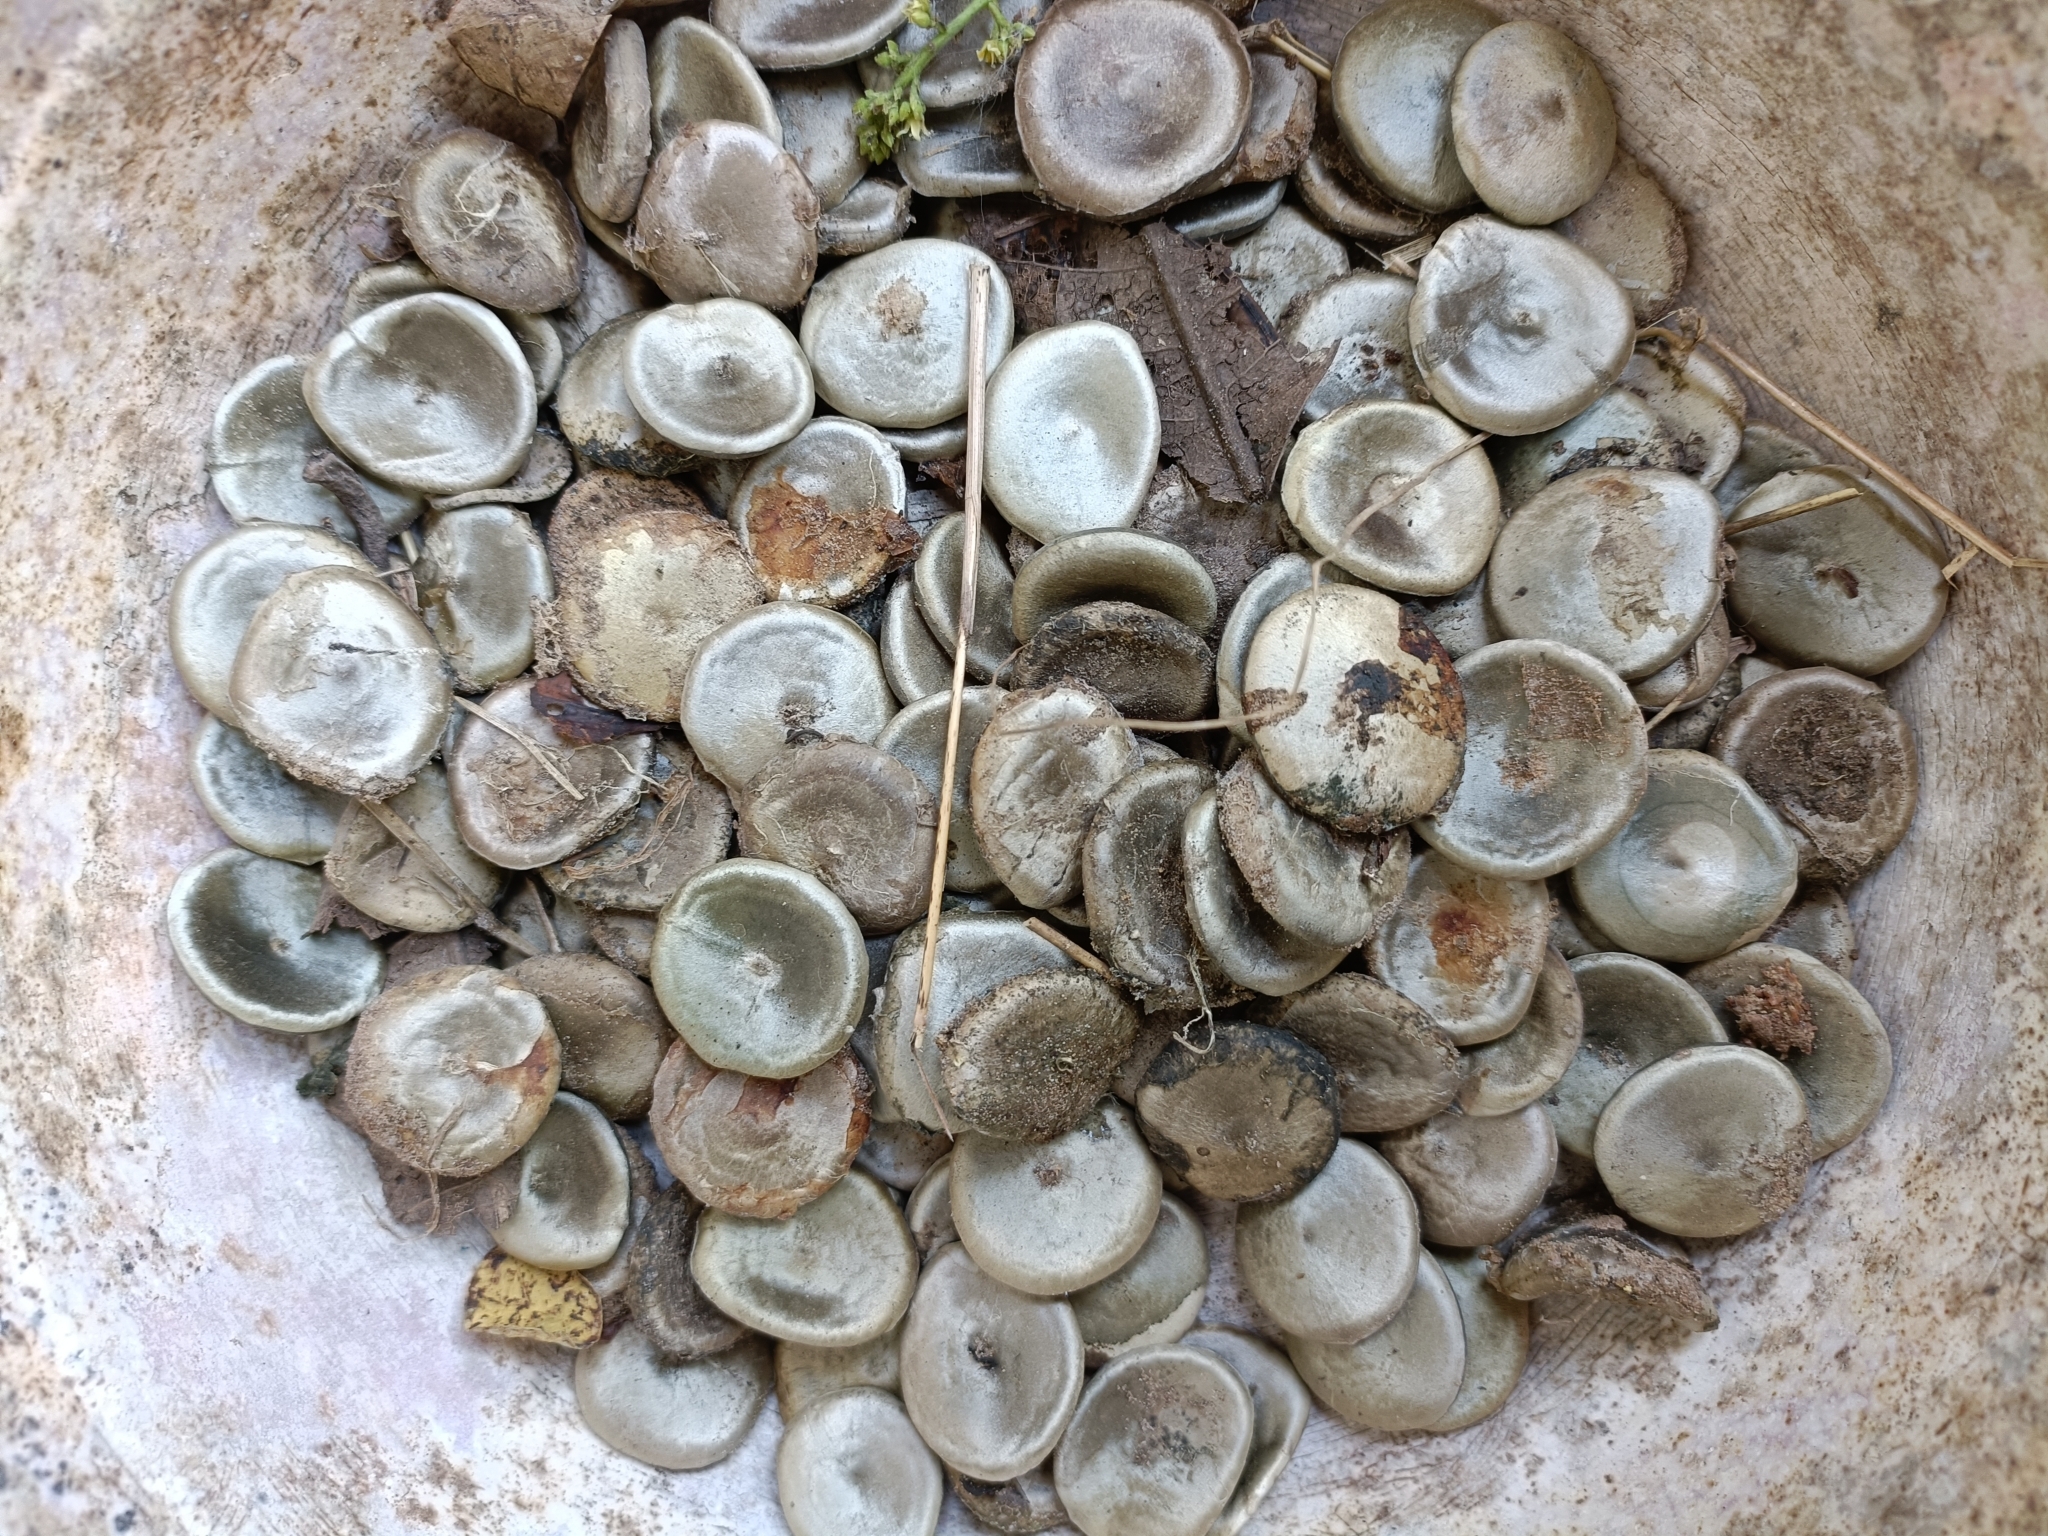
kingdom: Plantae
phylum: Tracheophyta
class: Magnoliopsida
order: Gentianales
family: Loganiaceae
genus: Strychnos
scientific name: Strychnos nux-vomica
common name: Strychninetree
